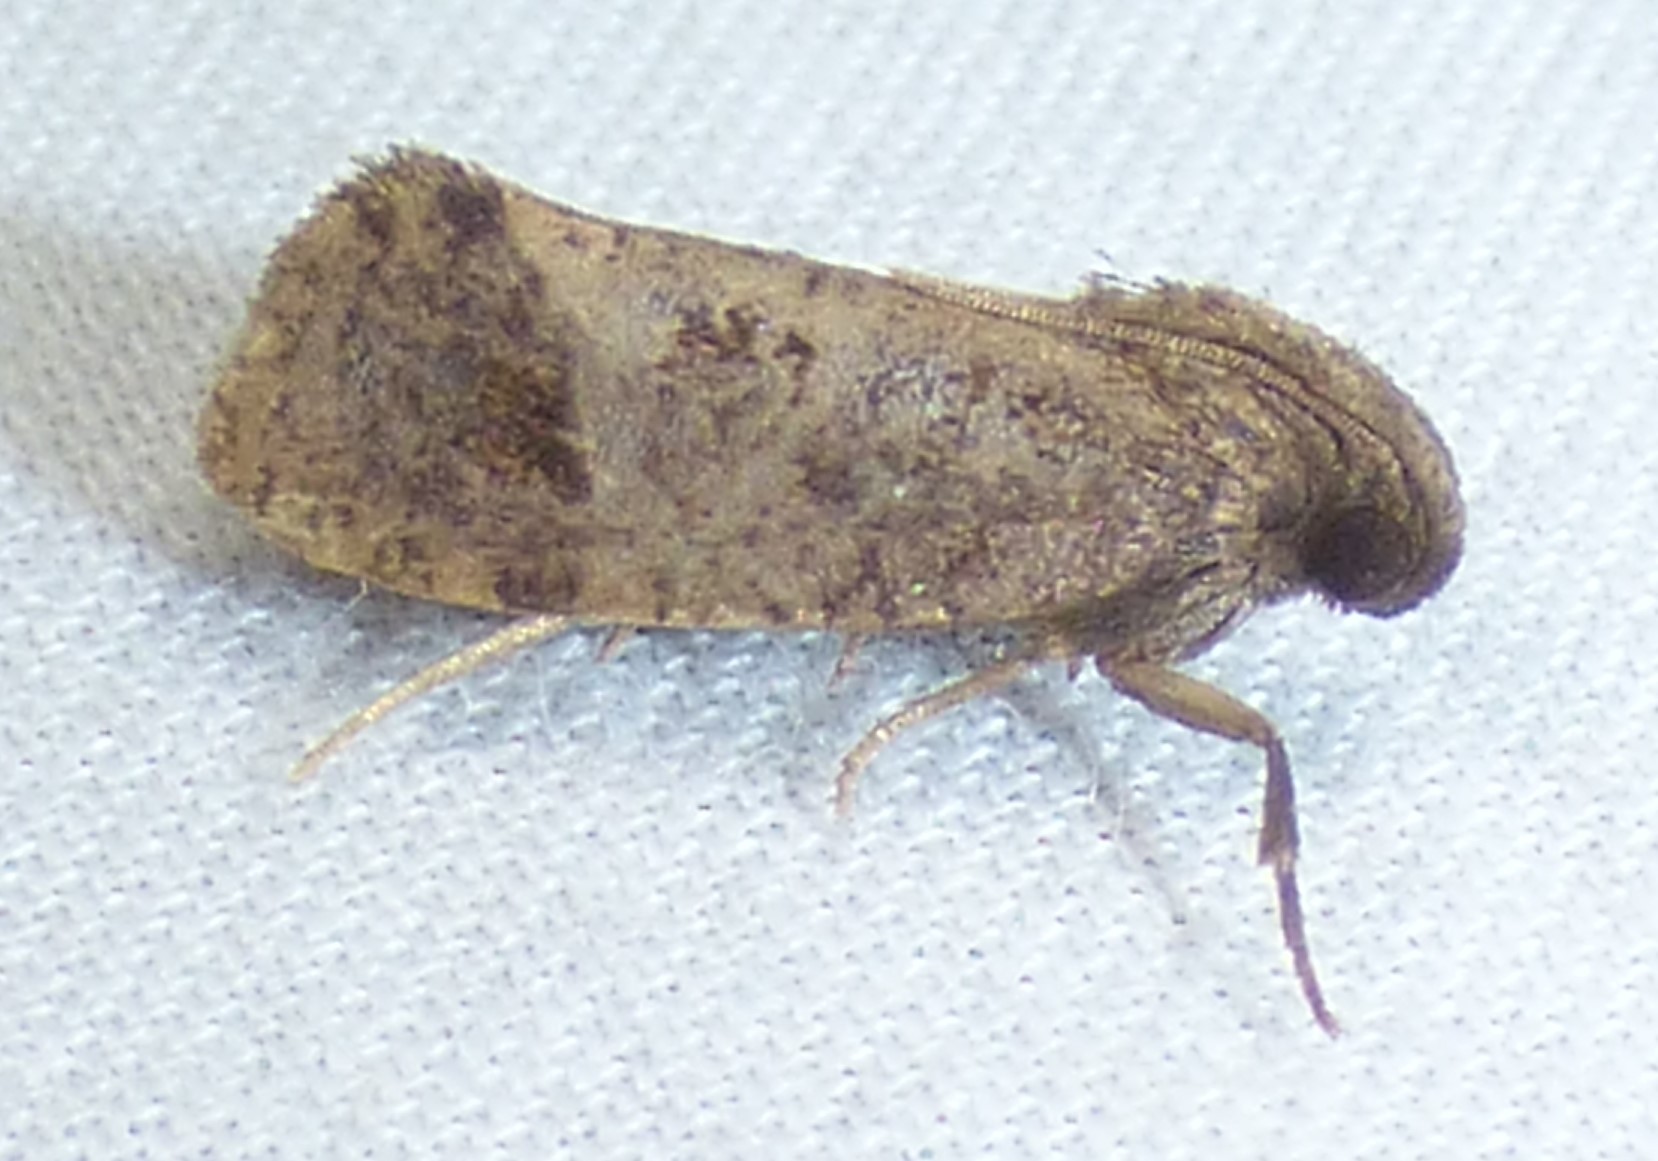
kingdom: Animalia
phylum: Arthropoda
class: Insecta
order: Lepidoptera
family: Tineidae
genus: Acrolophus
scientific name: Acrolophus texanella
